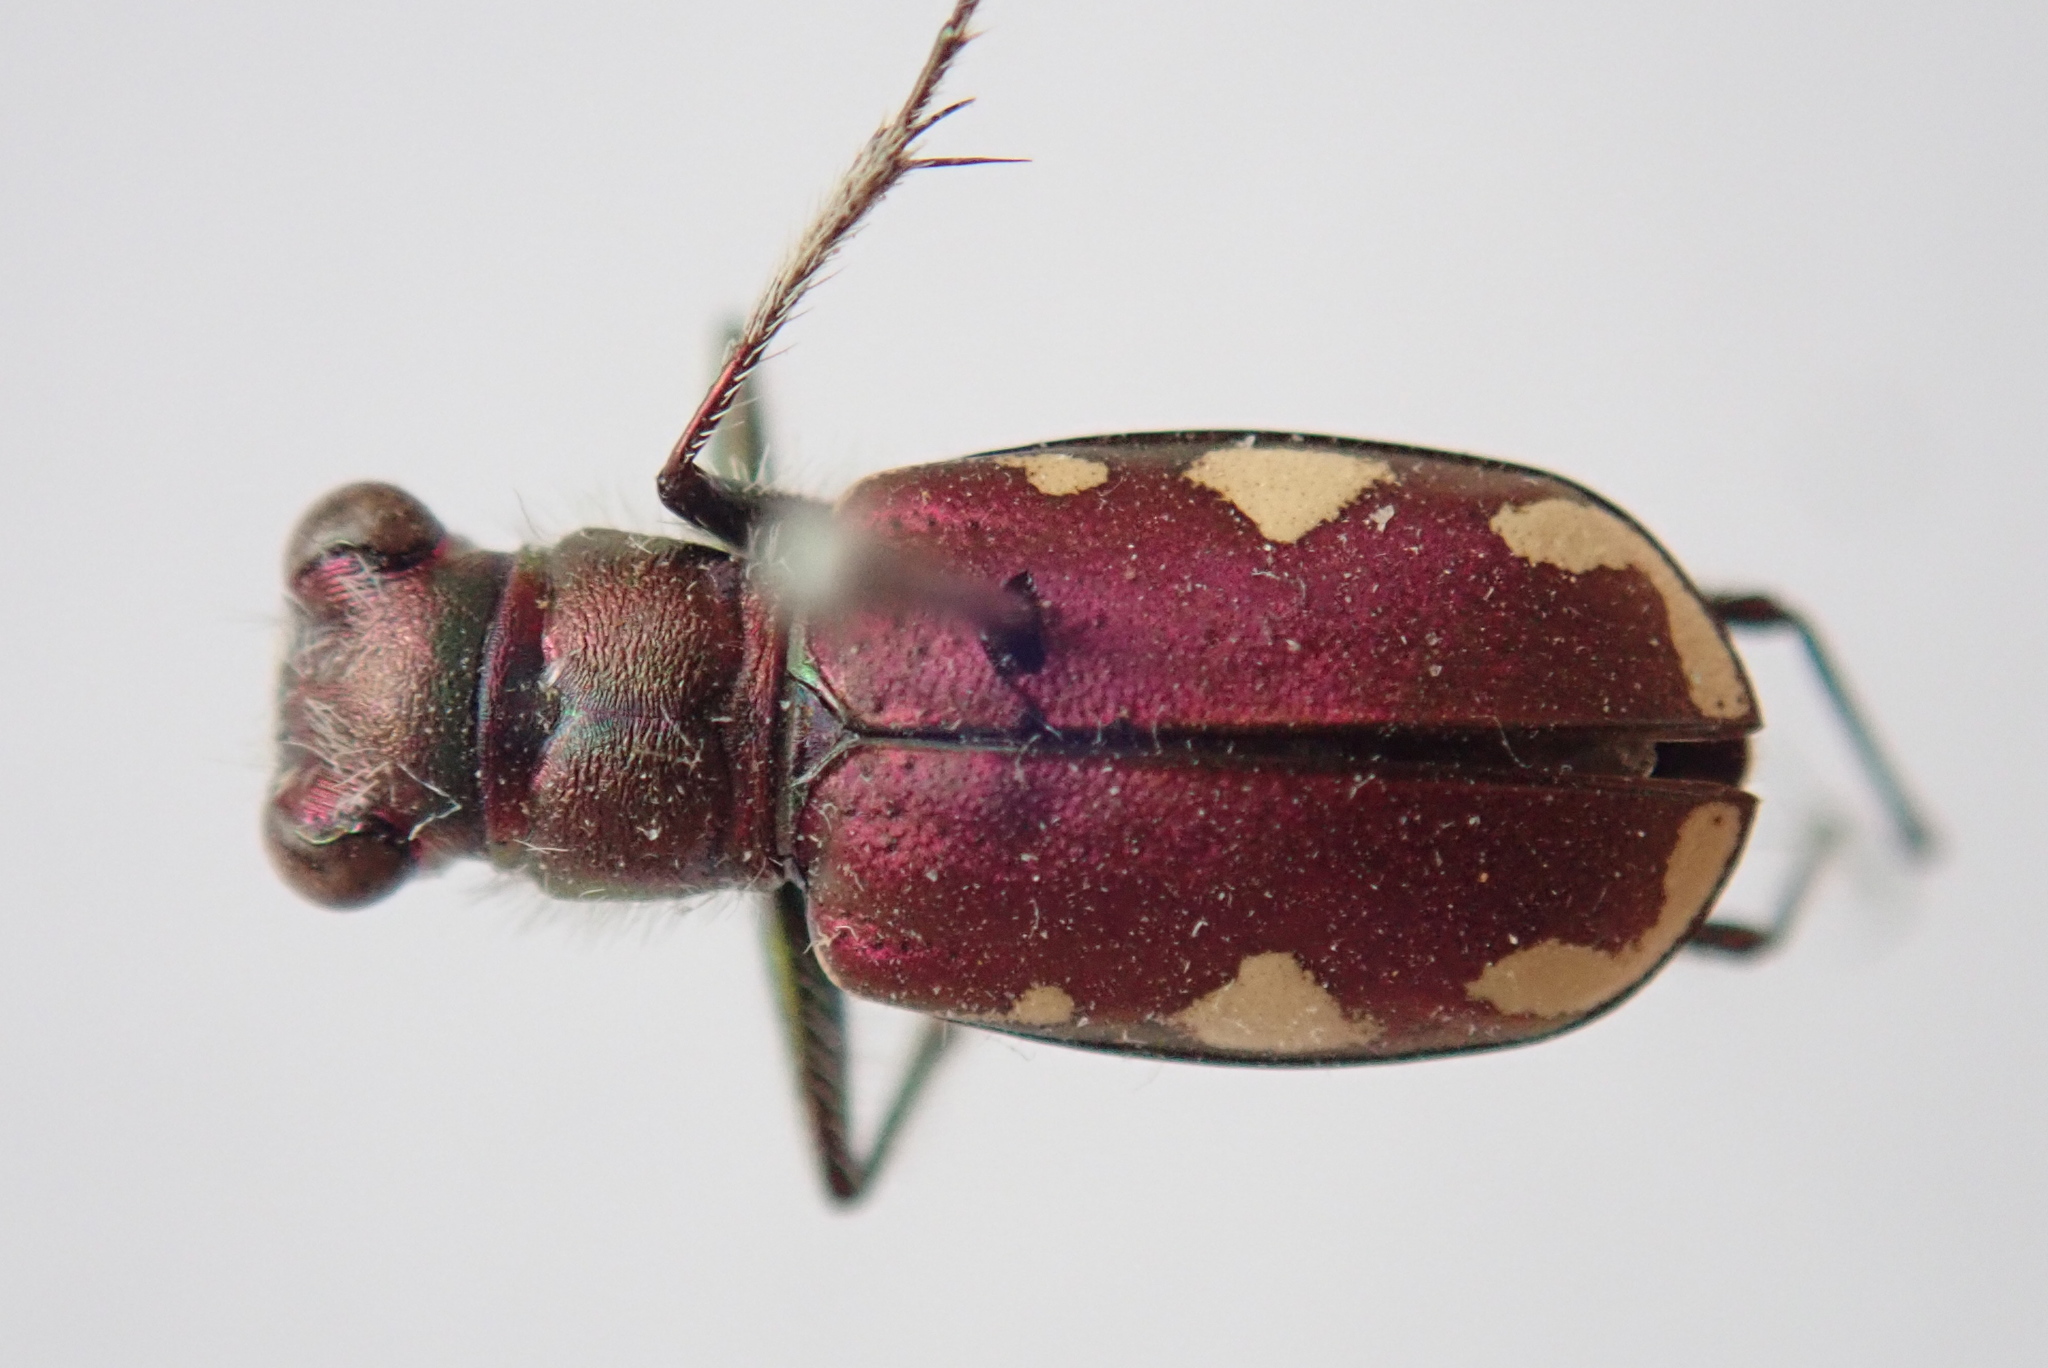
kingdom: Animalia
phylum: Arthropoda
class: Insecta
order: Coleoptera
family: Carabidae
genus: Cicindela
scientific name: Cicindela scutellaris
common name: Festive tiger beetle
